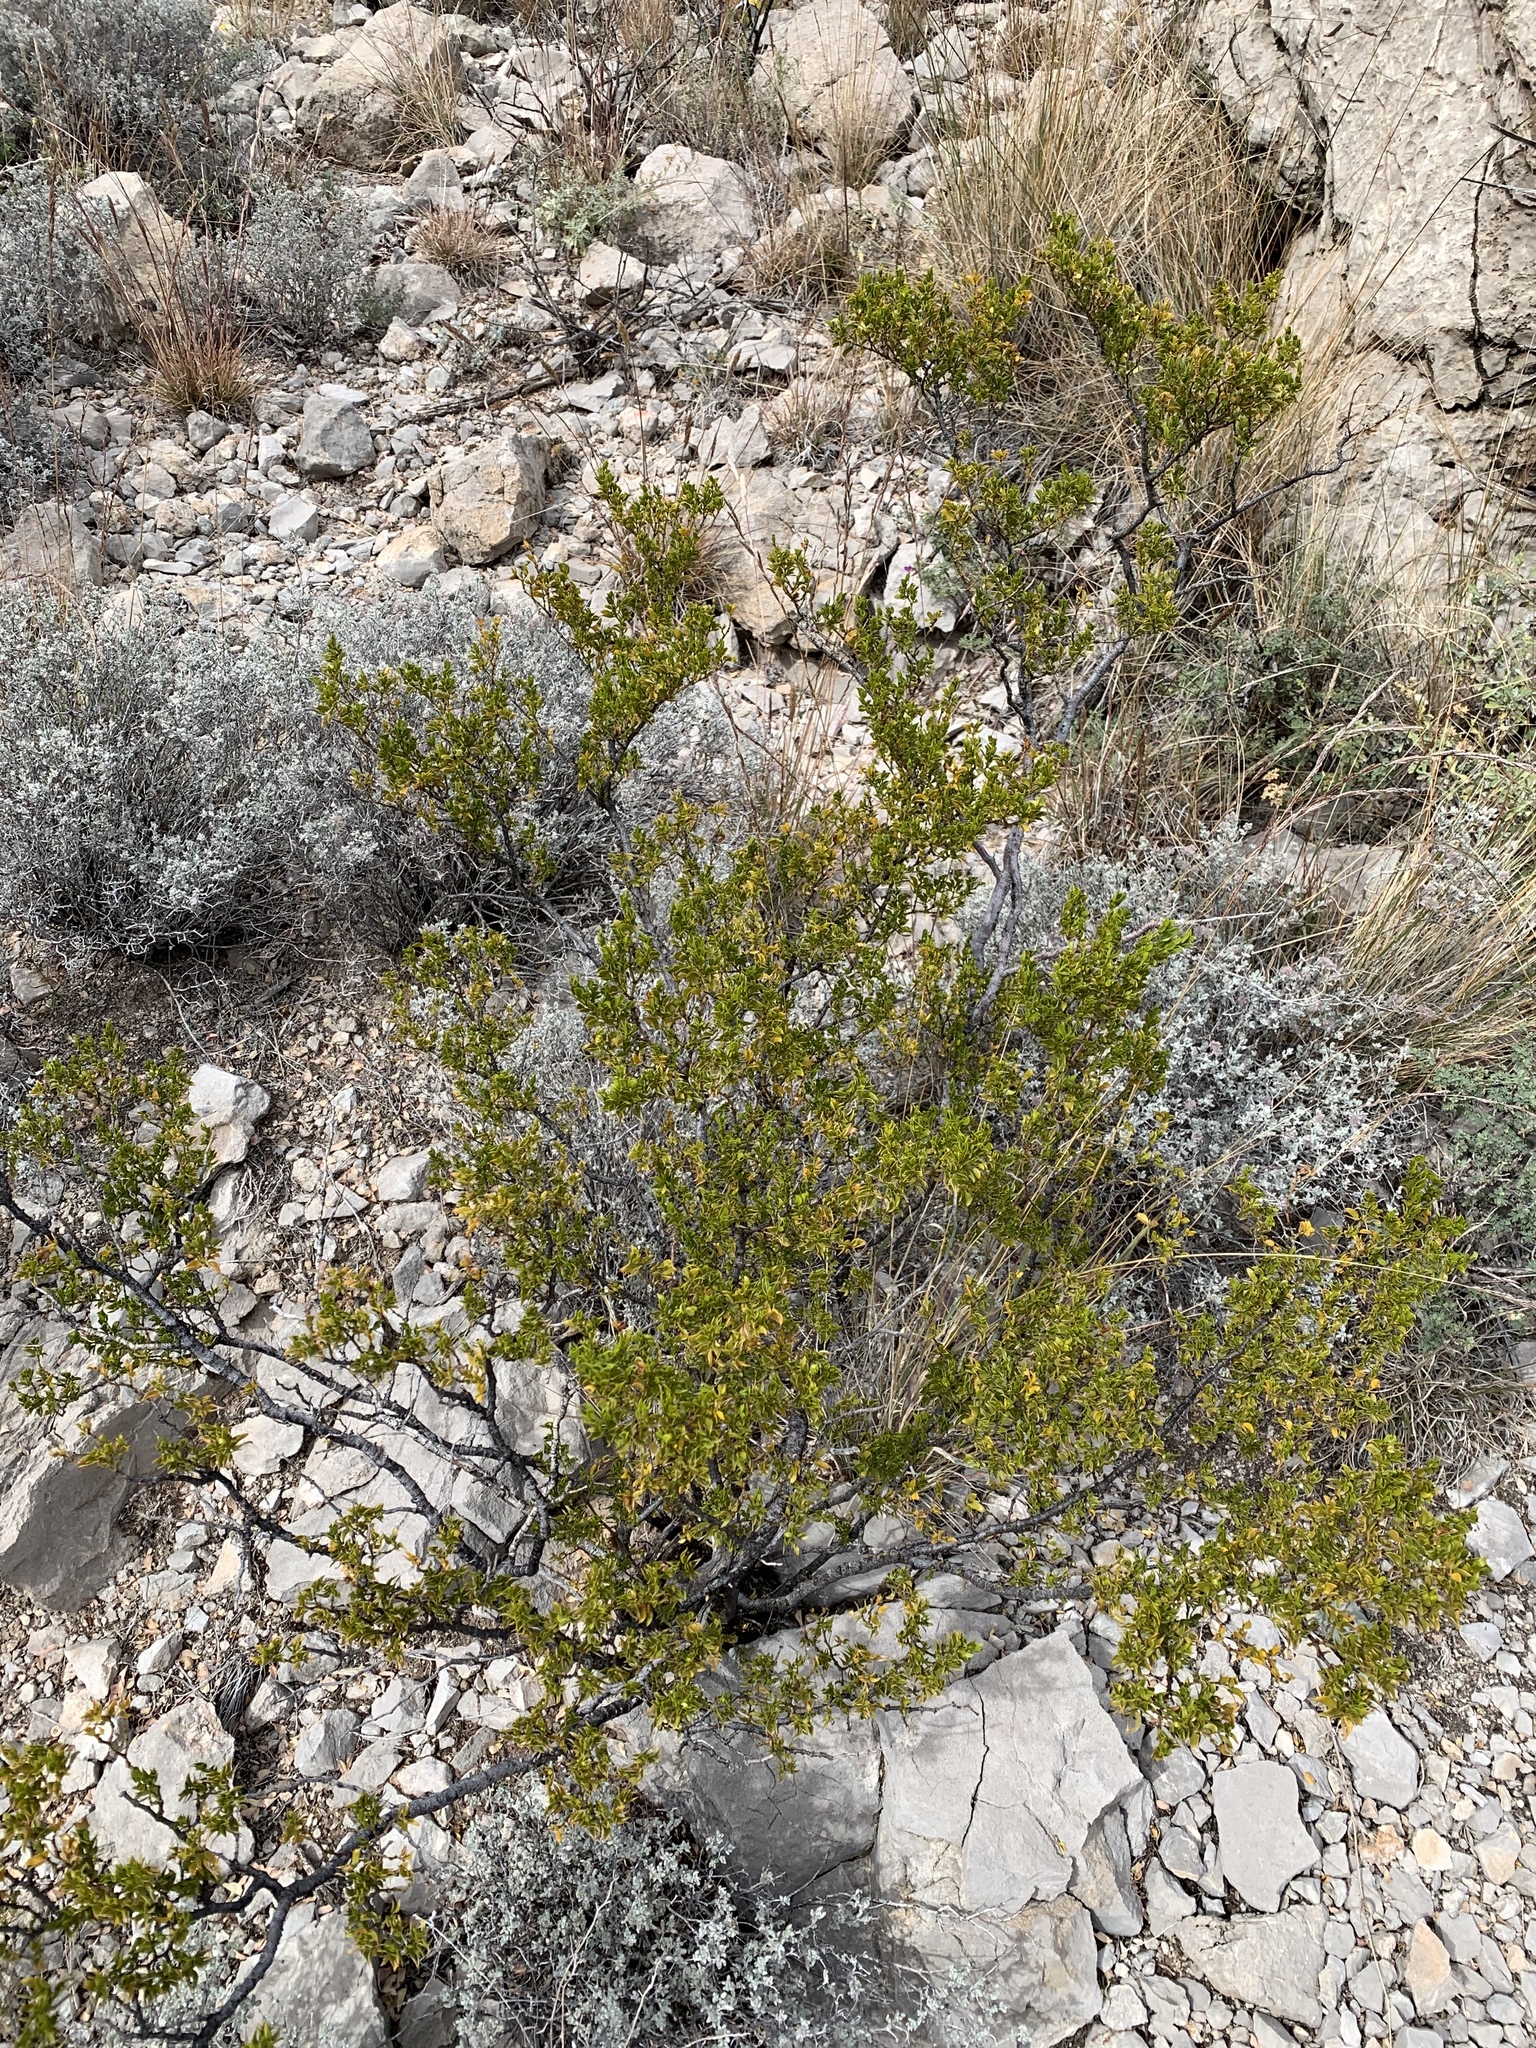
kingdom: Plantae
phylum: Tracheophyta
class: Magnoliopsida
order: Zygophyllales
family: Zygophyllaceae
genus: Larrea
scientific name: Larrea tridentata
